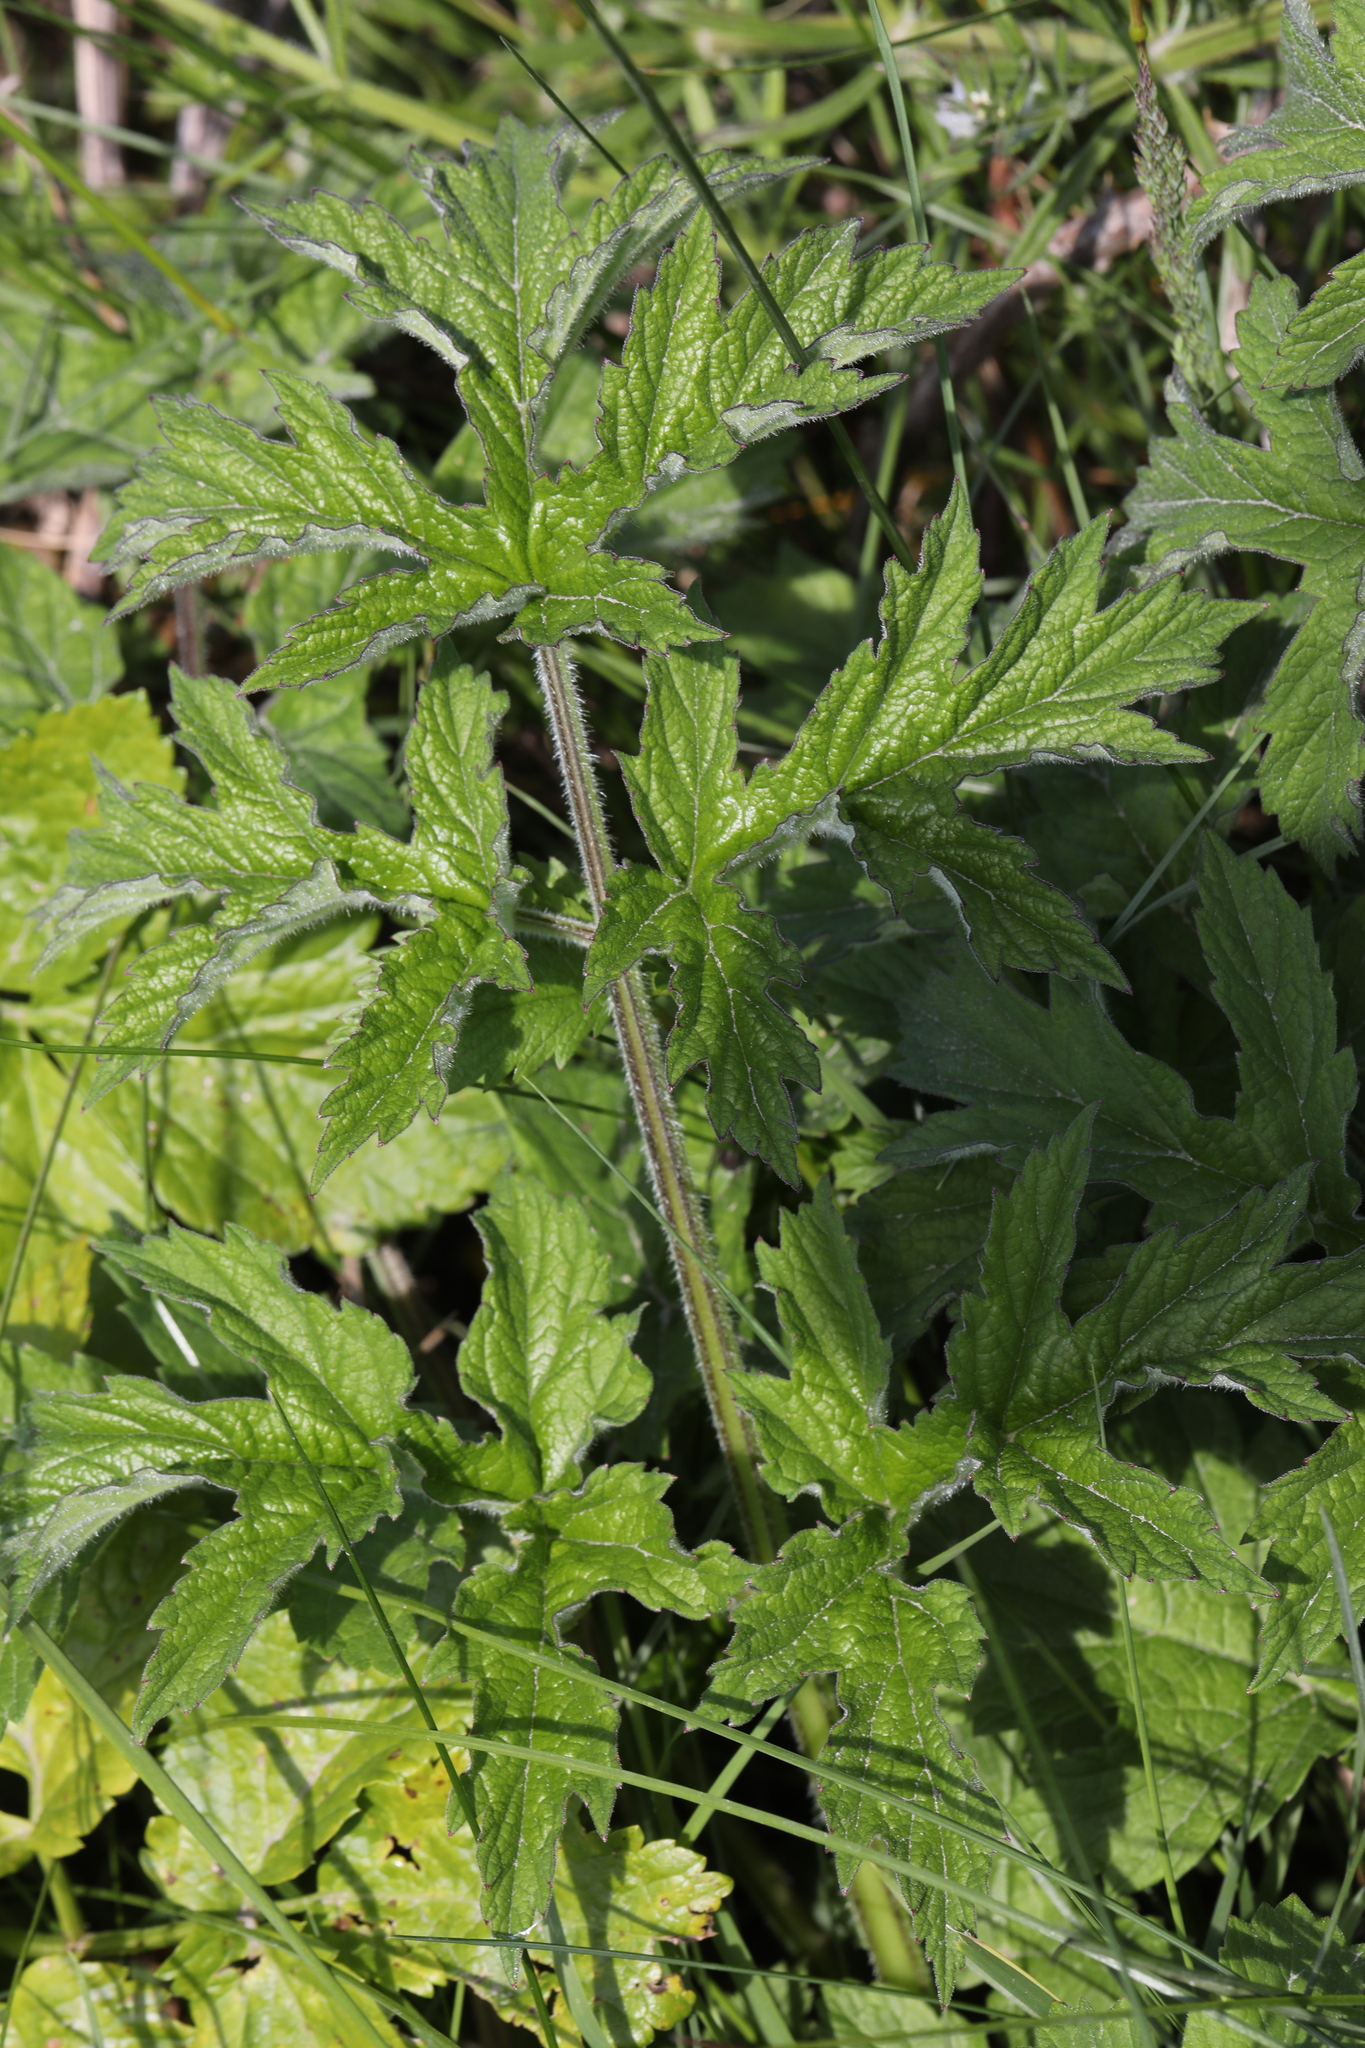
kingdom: Plantae
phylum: Tracheophyta
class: Magnoliopsida
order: Apiales
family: Apiaceae
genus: Heracleum
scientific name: Heracleum sphondylium
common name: Hogweed
